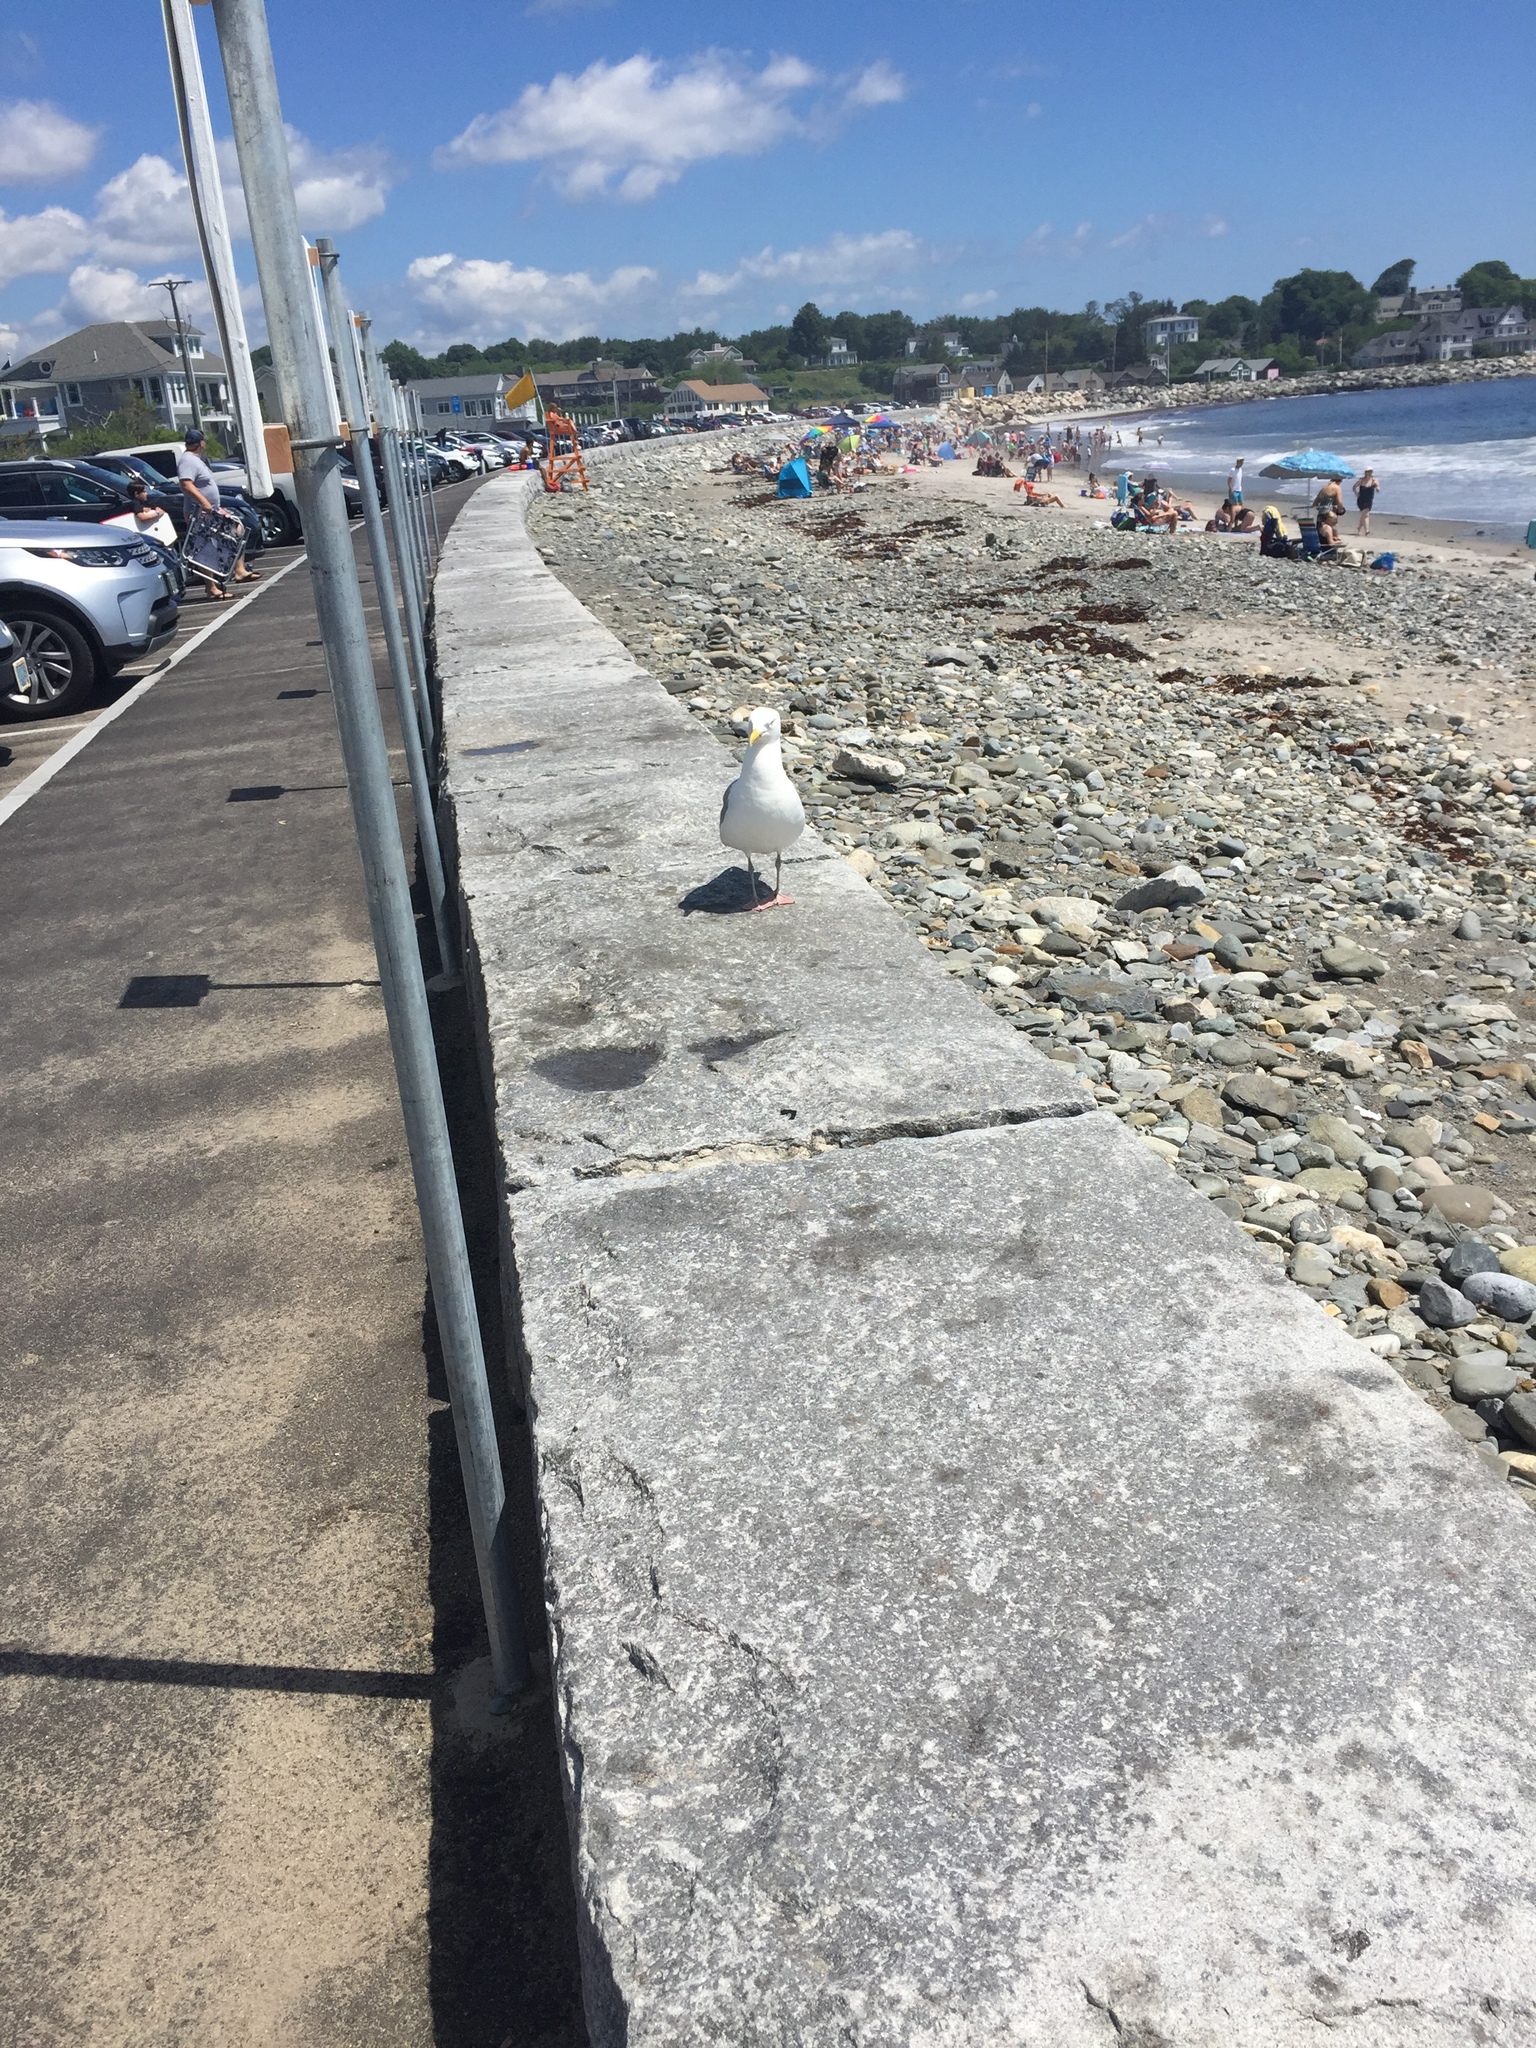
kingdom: Animalia
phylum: Chordata
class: Aves
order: Charadriiformes
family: Laridae
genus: Larus
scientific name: Larus argentatus
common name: Herring gull
